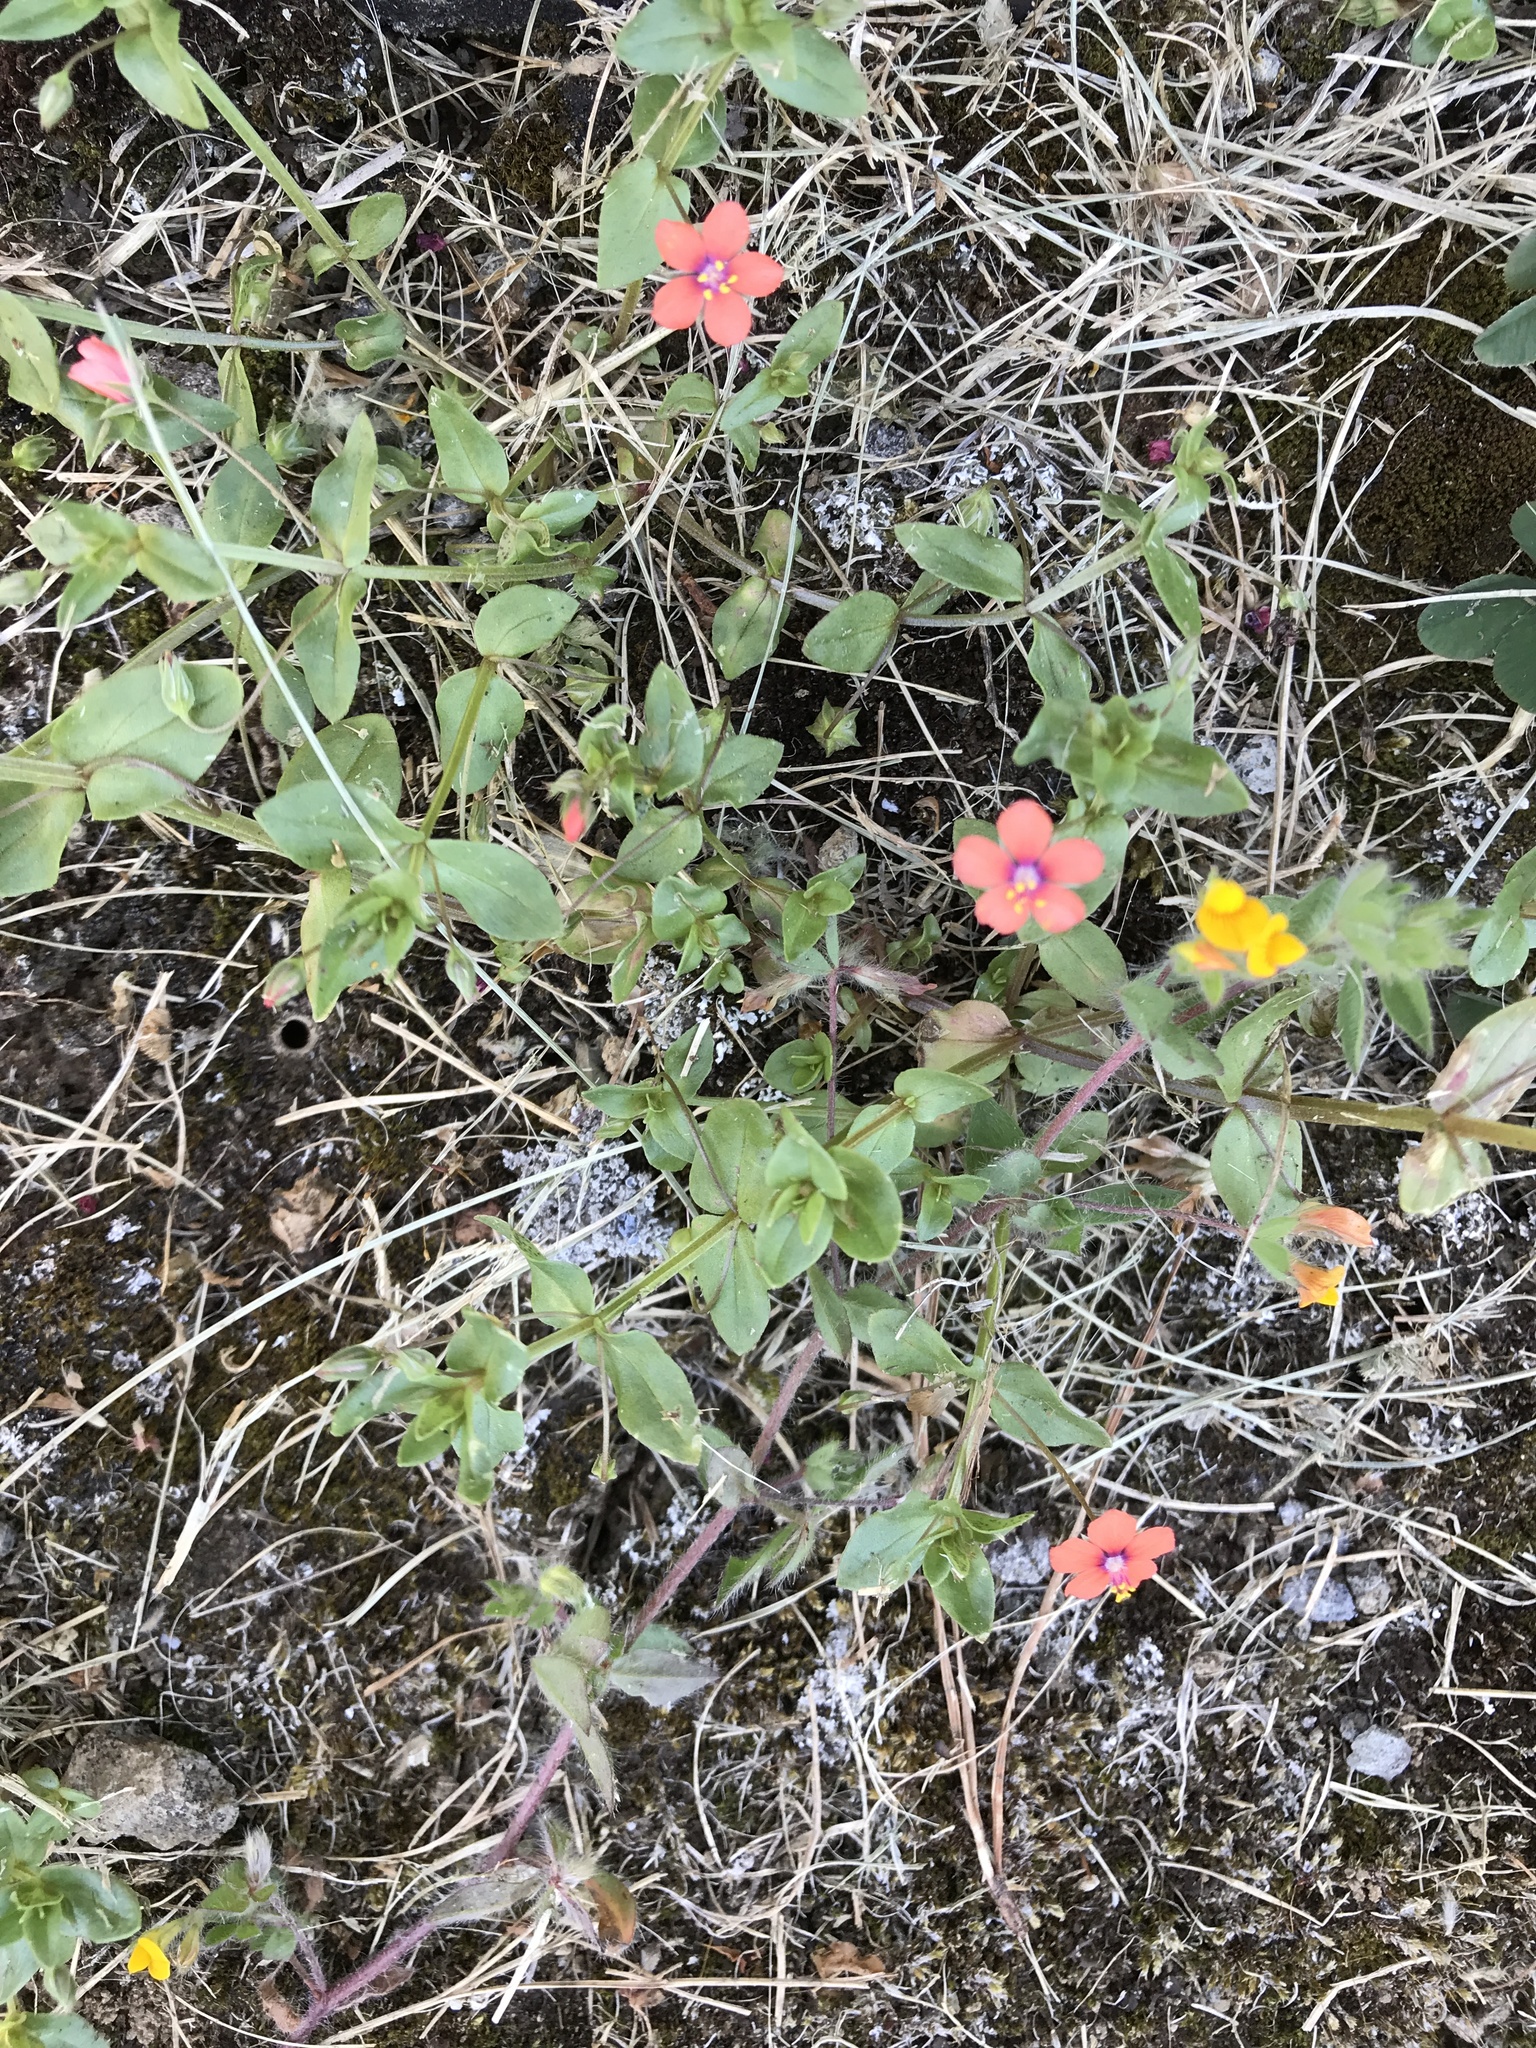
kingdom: Plantae
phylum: Tracheophyta
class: Magnoliopsida
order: Ericales
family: Primulaceae
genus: Lysimachia
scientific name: Lysimachia arvensis
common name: Scarlet pimpernel
